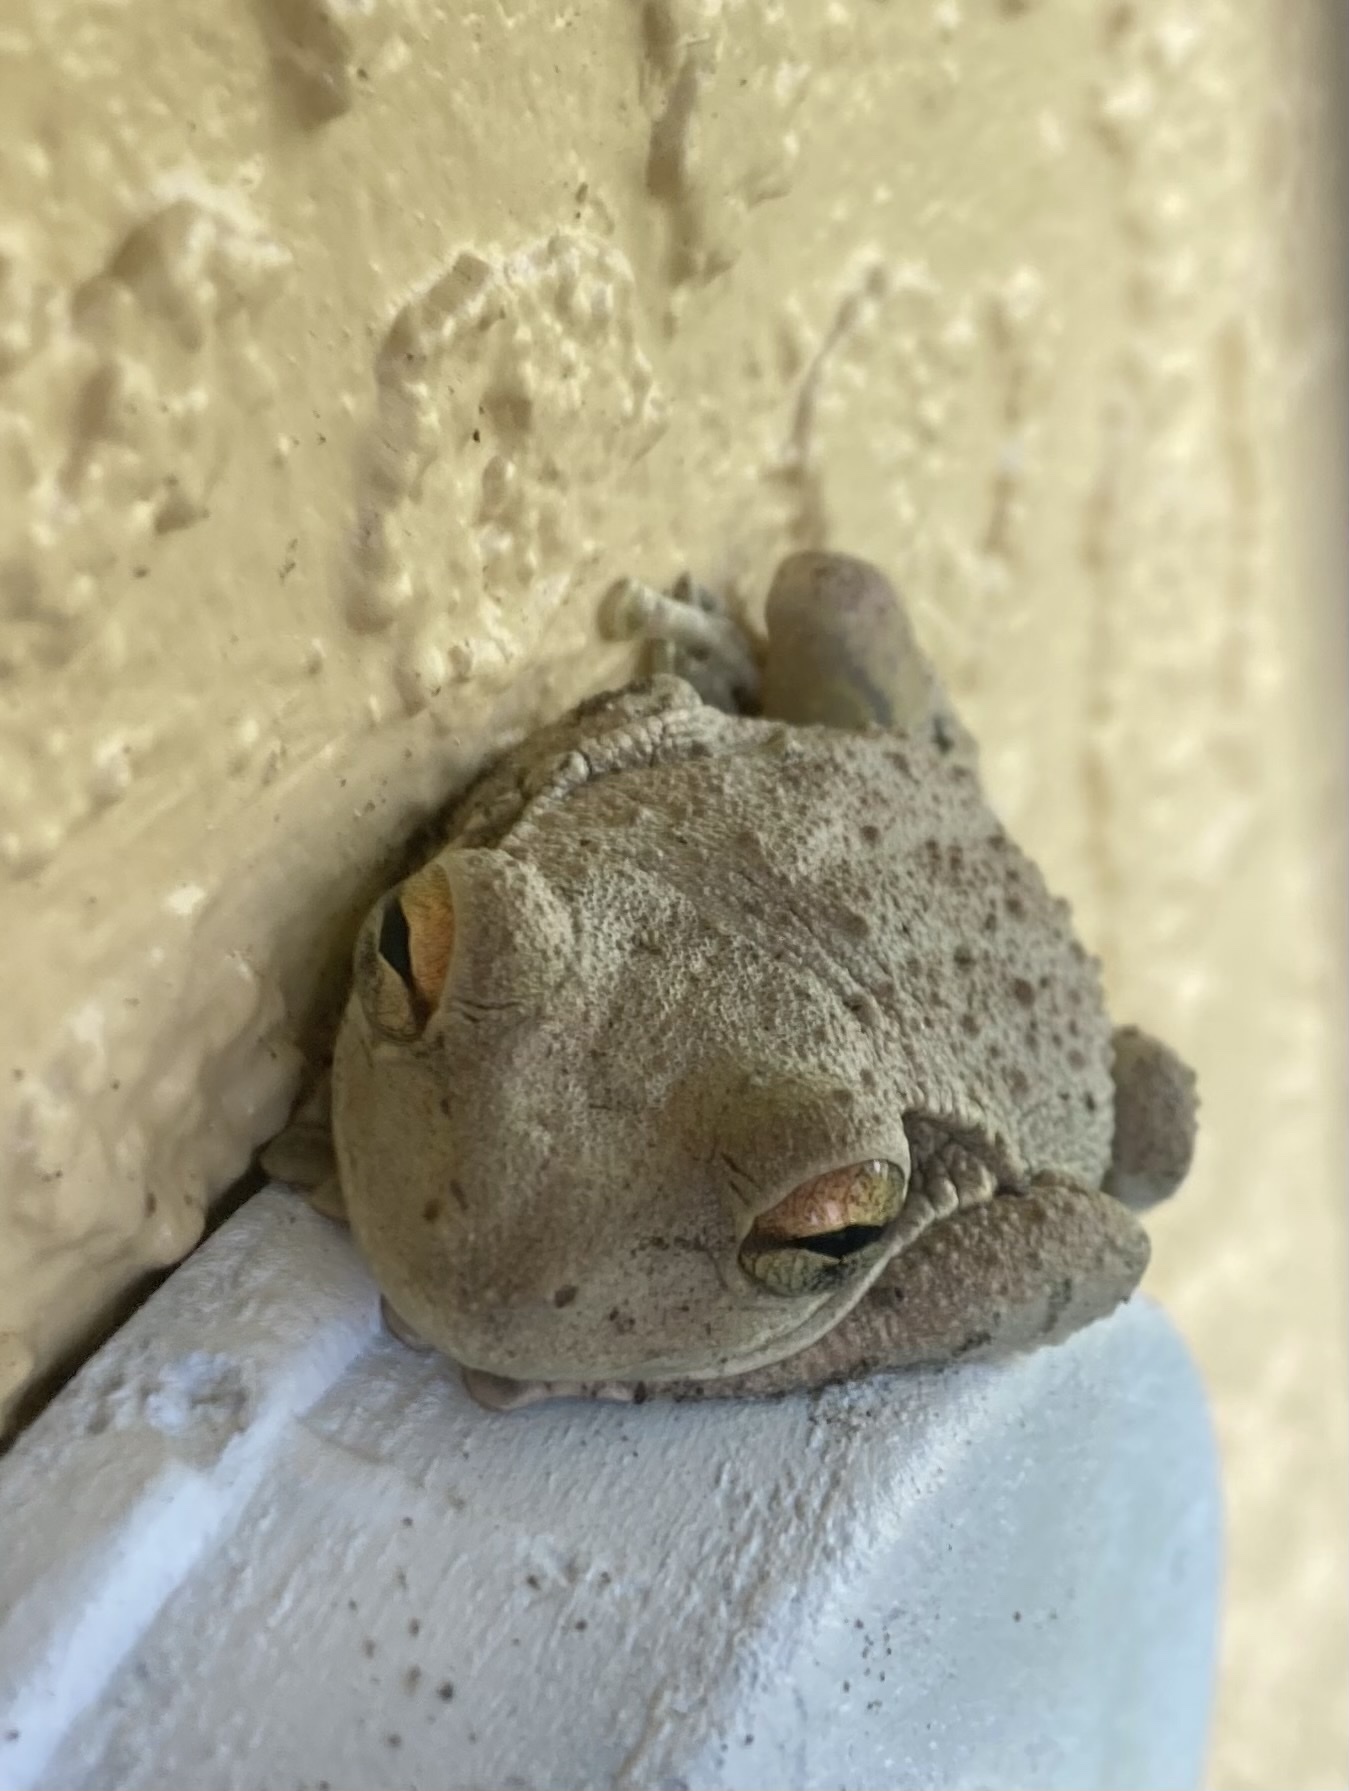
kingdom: Animalia
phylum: Chordata
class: Amphibia
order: Anura
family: Hylidae
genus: Osteopilus
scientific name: Osteopilus septentrionalis
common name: Cuban treefrog
